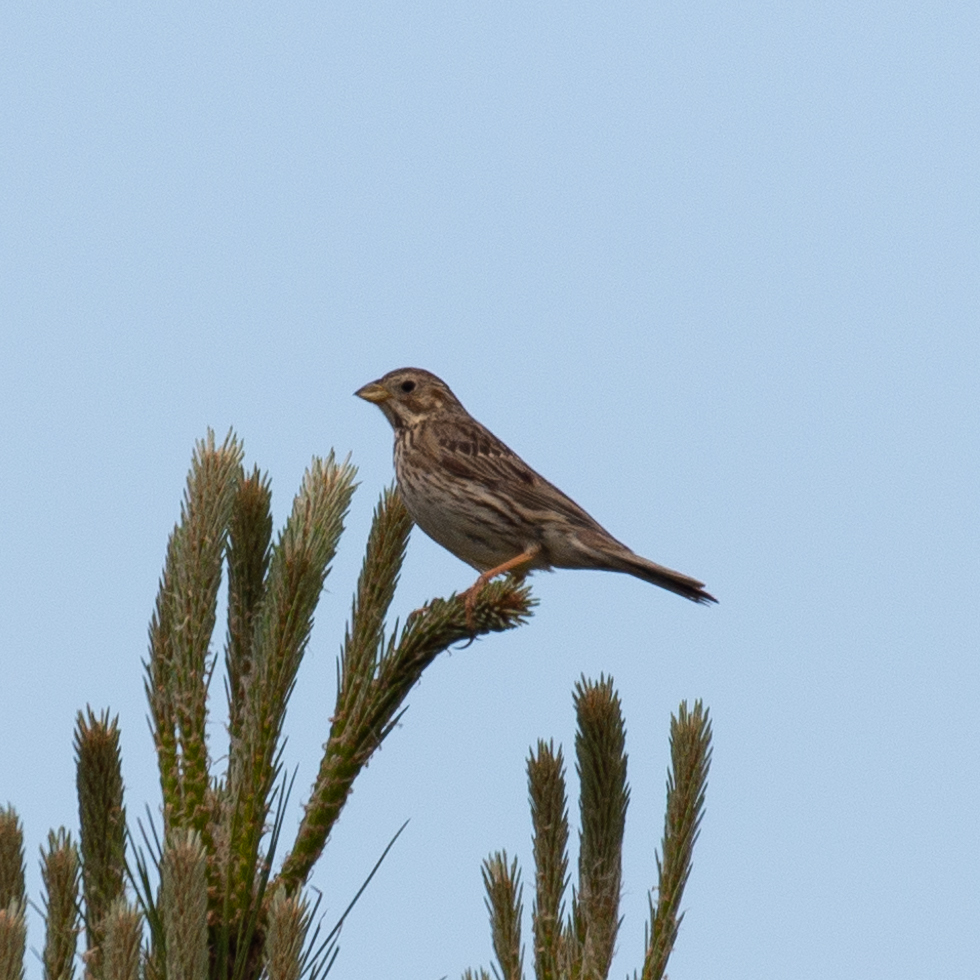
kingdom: Animalia
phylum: Chordata
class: Aves
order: Passeriformes
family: Emberizidae
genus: Emberiza
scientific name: Emberiza calandra
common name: Corn bunting
